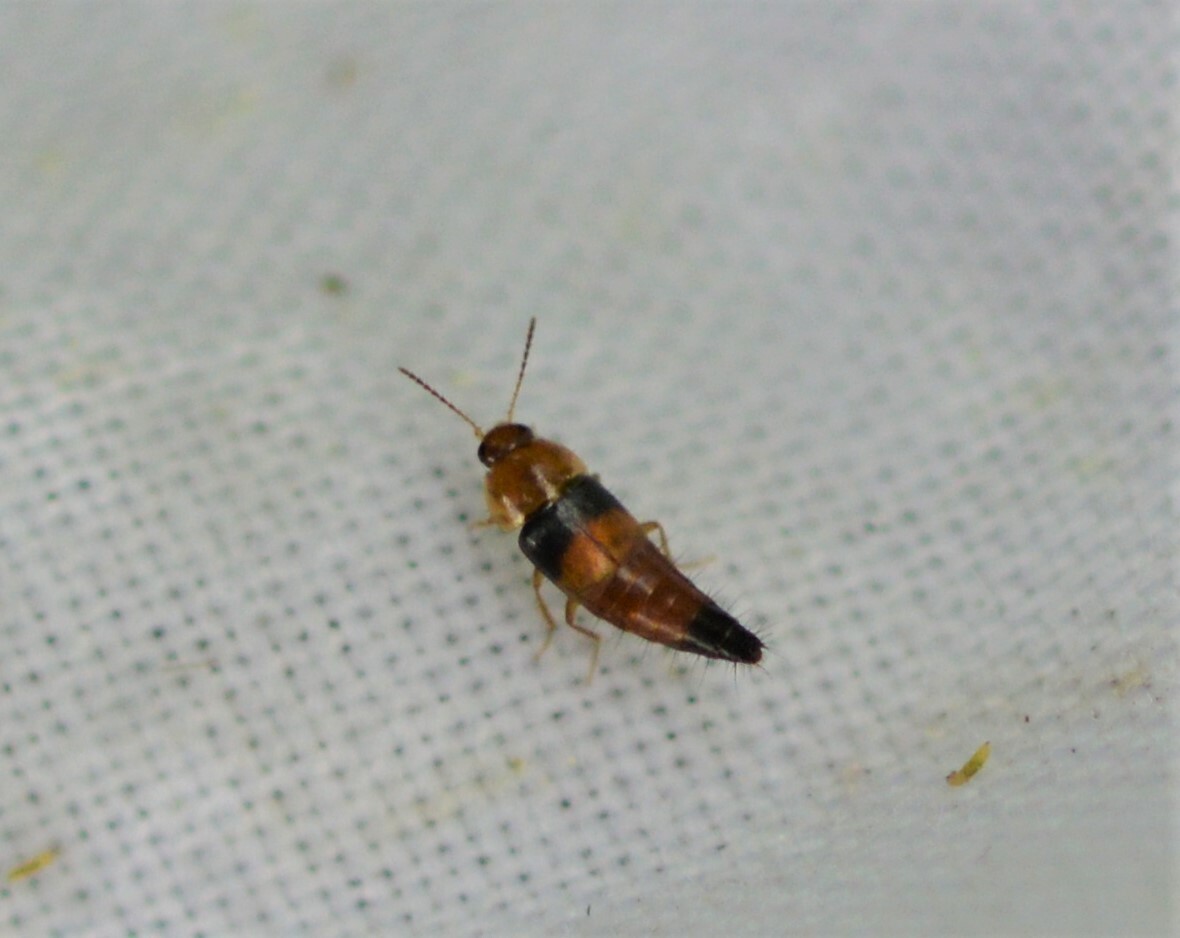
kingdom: Animalia
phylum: Arthropoda
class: Insecta
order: Coleoptera
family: Staphylinidae
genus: Tachyporus
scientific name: Tachyporus obtusus
